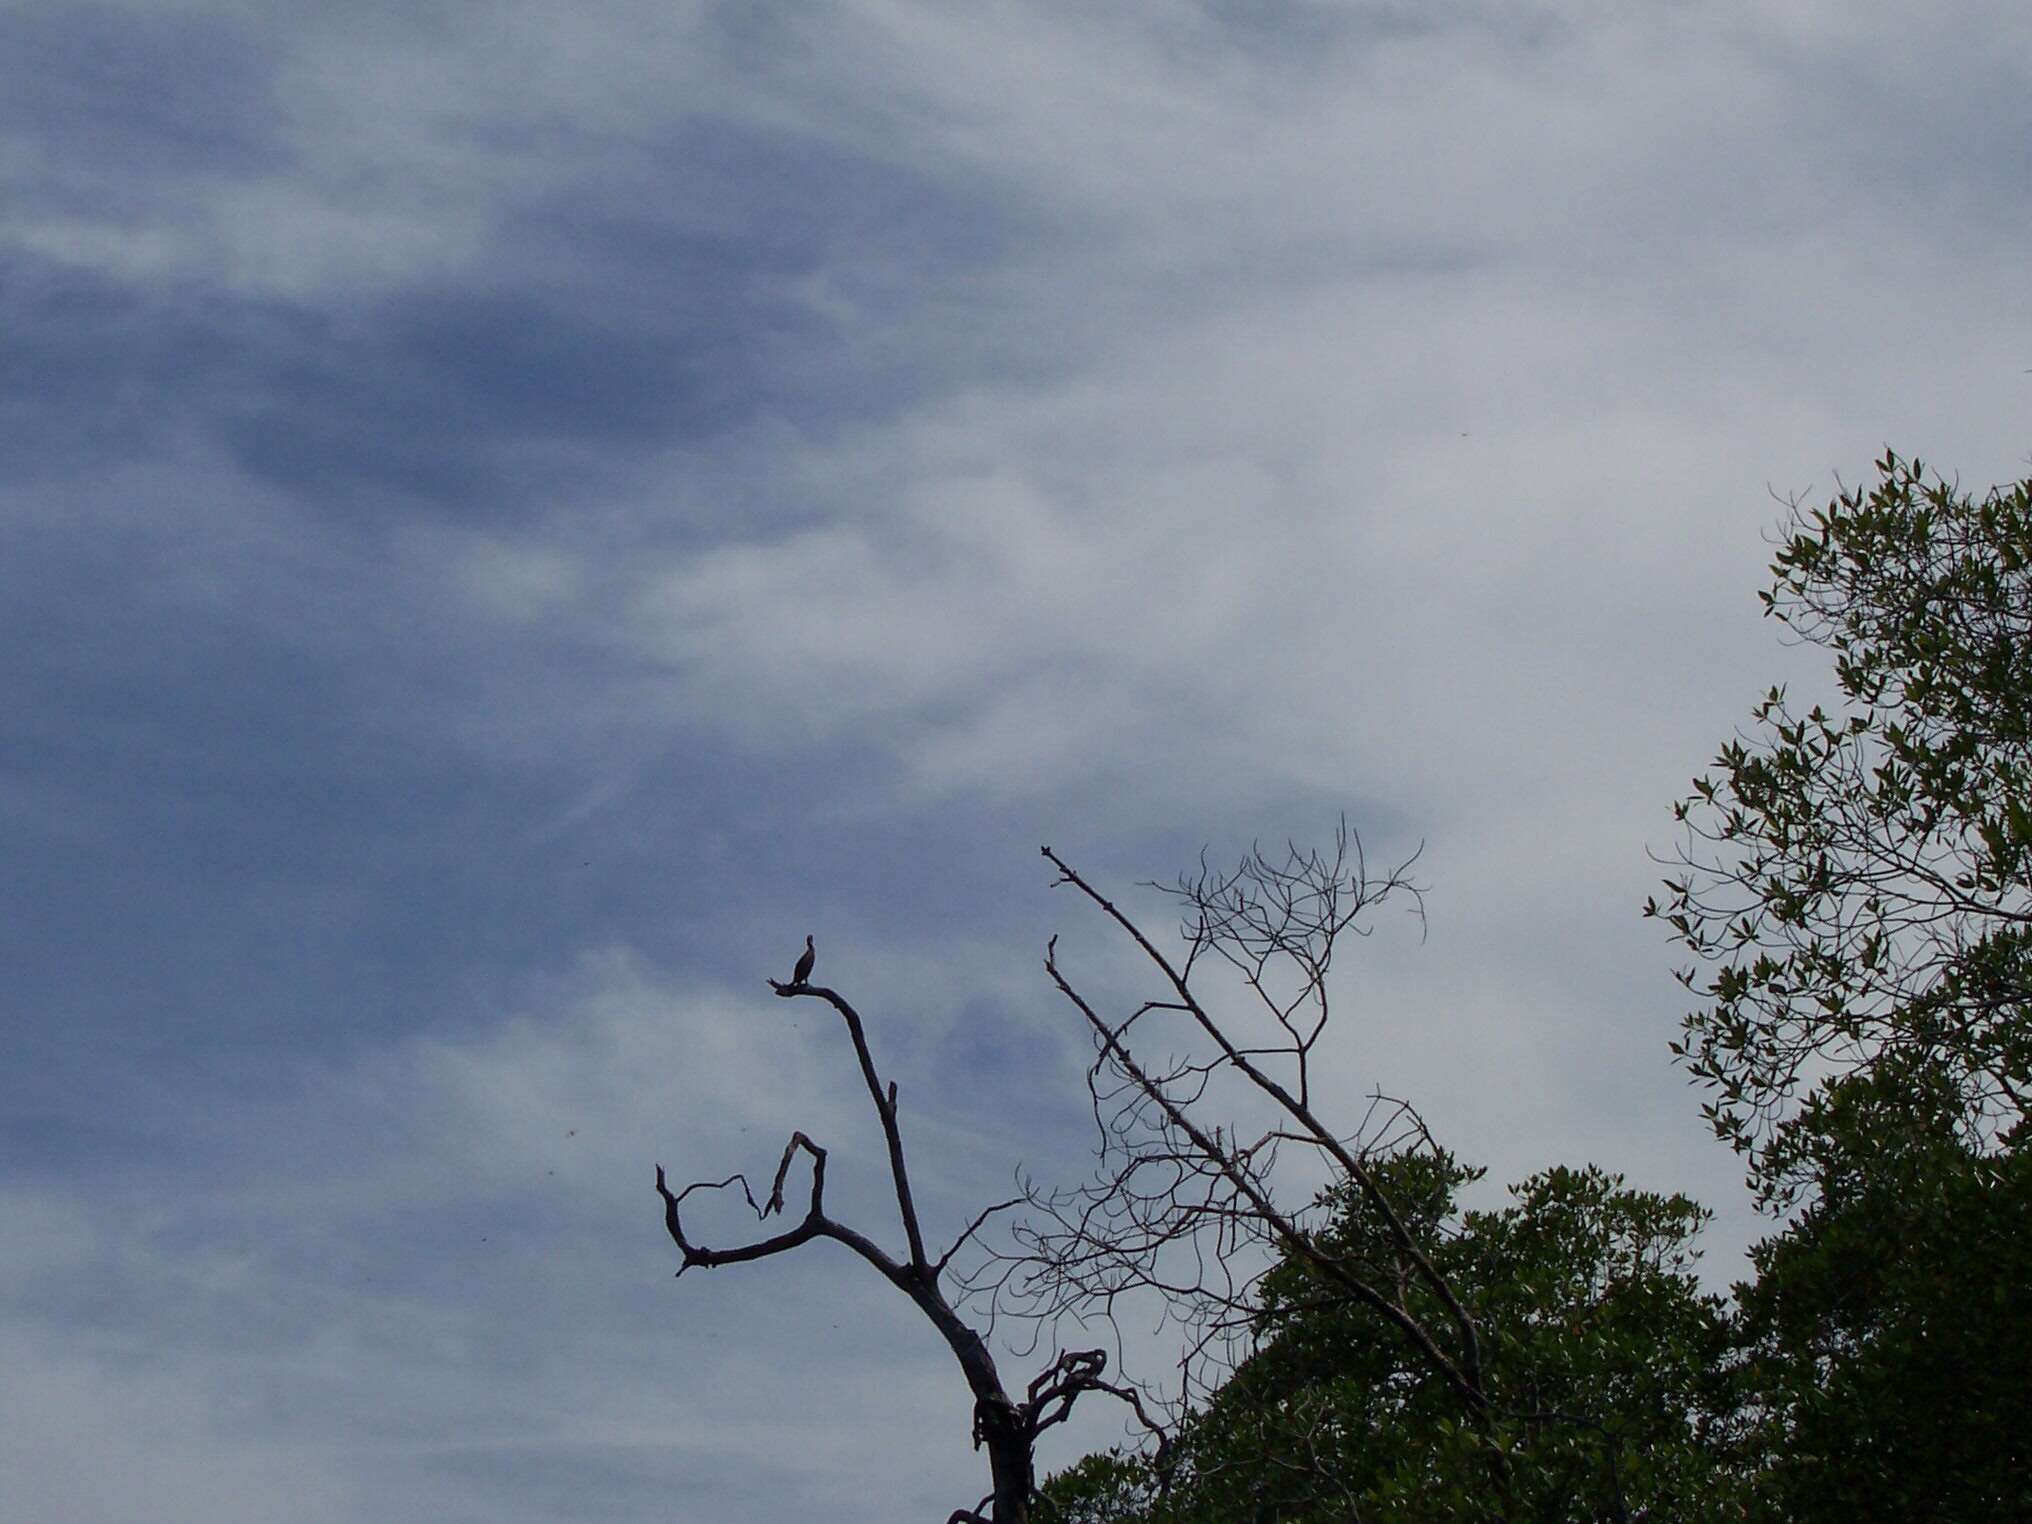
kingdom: Animalia
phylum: Chordata
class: Aves
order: Suliformes
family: Phalacrocoracidae
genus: Phalacrocorax
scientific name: Phalacrocorax brasilianus
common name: Neotropic cormorant
